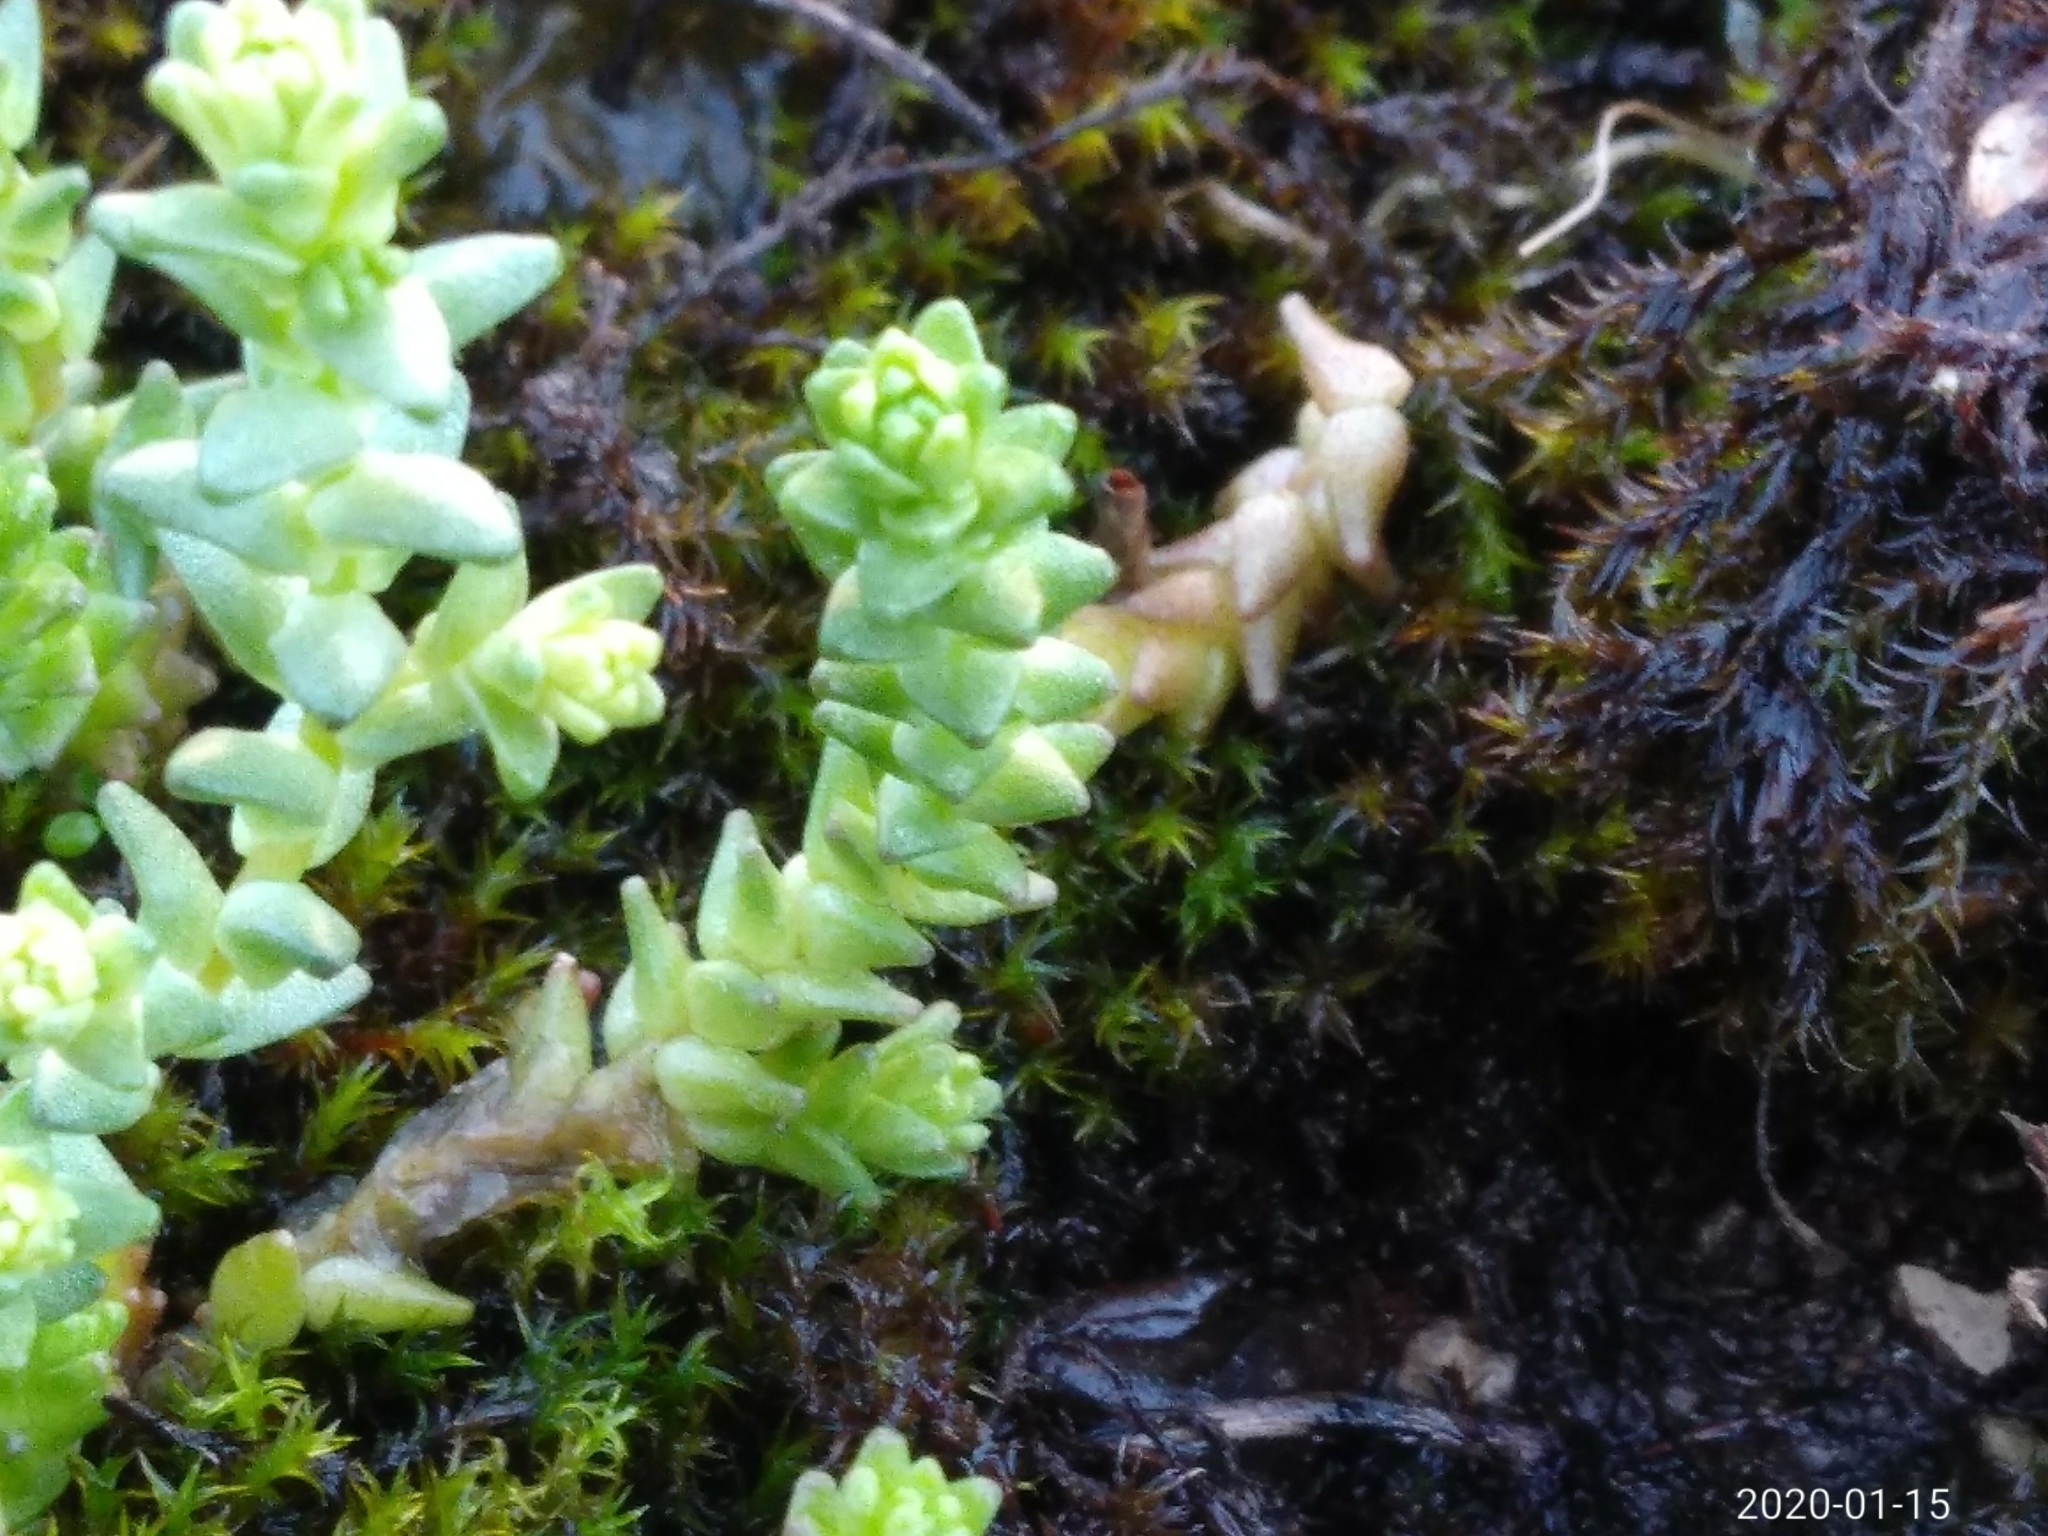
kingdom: Plantae
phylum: Tracheophyta
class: Magnoliopsida
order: Saxifragales
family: Crassulaceae
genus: Sedum
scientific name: Sedum acre
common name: Biting stonecrop
